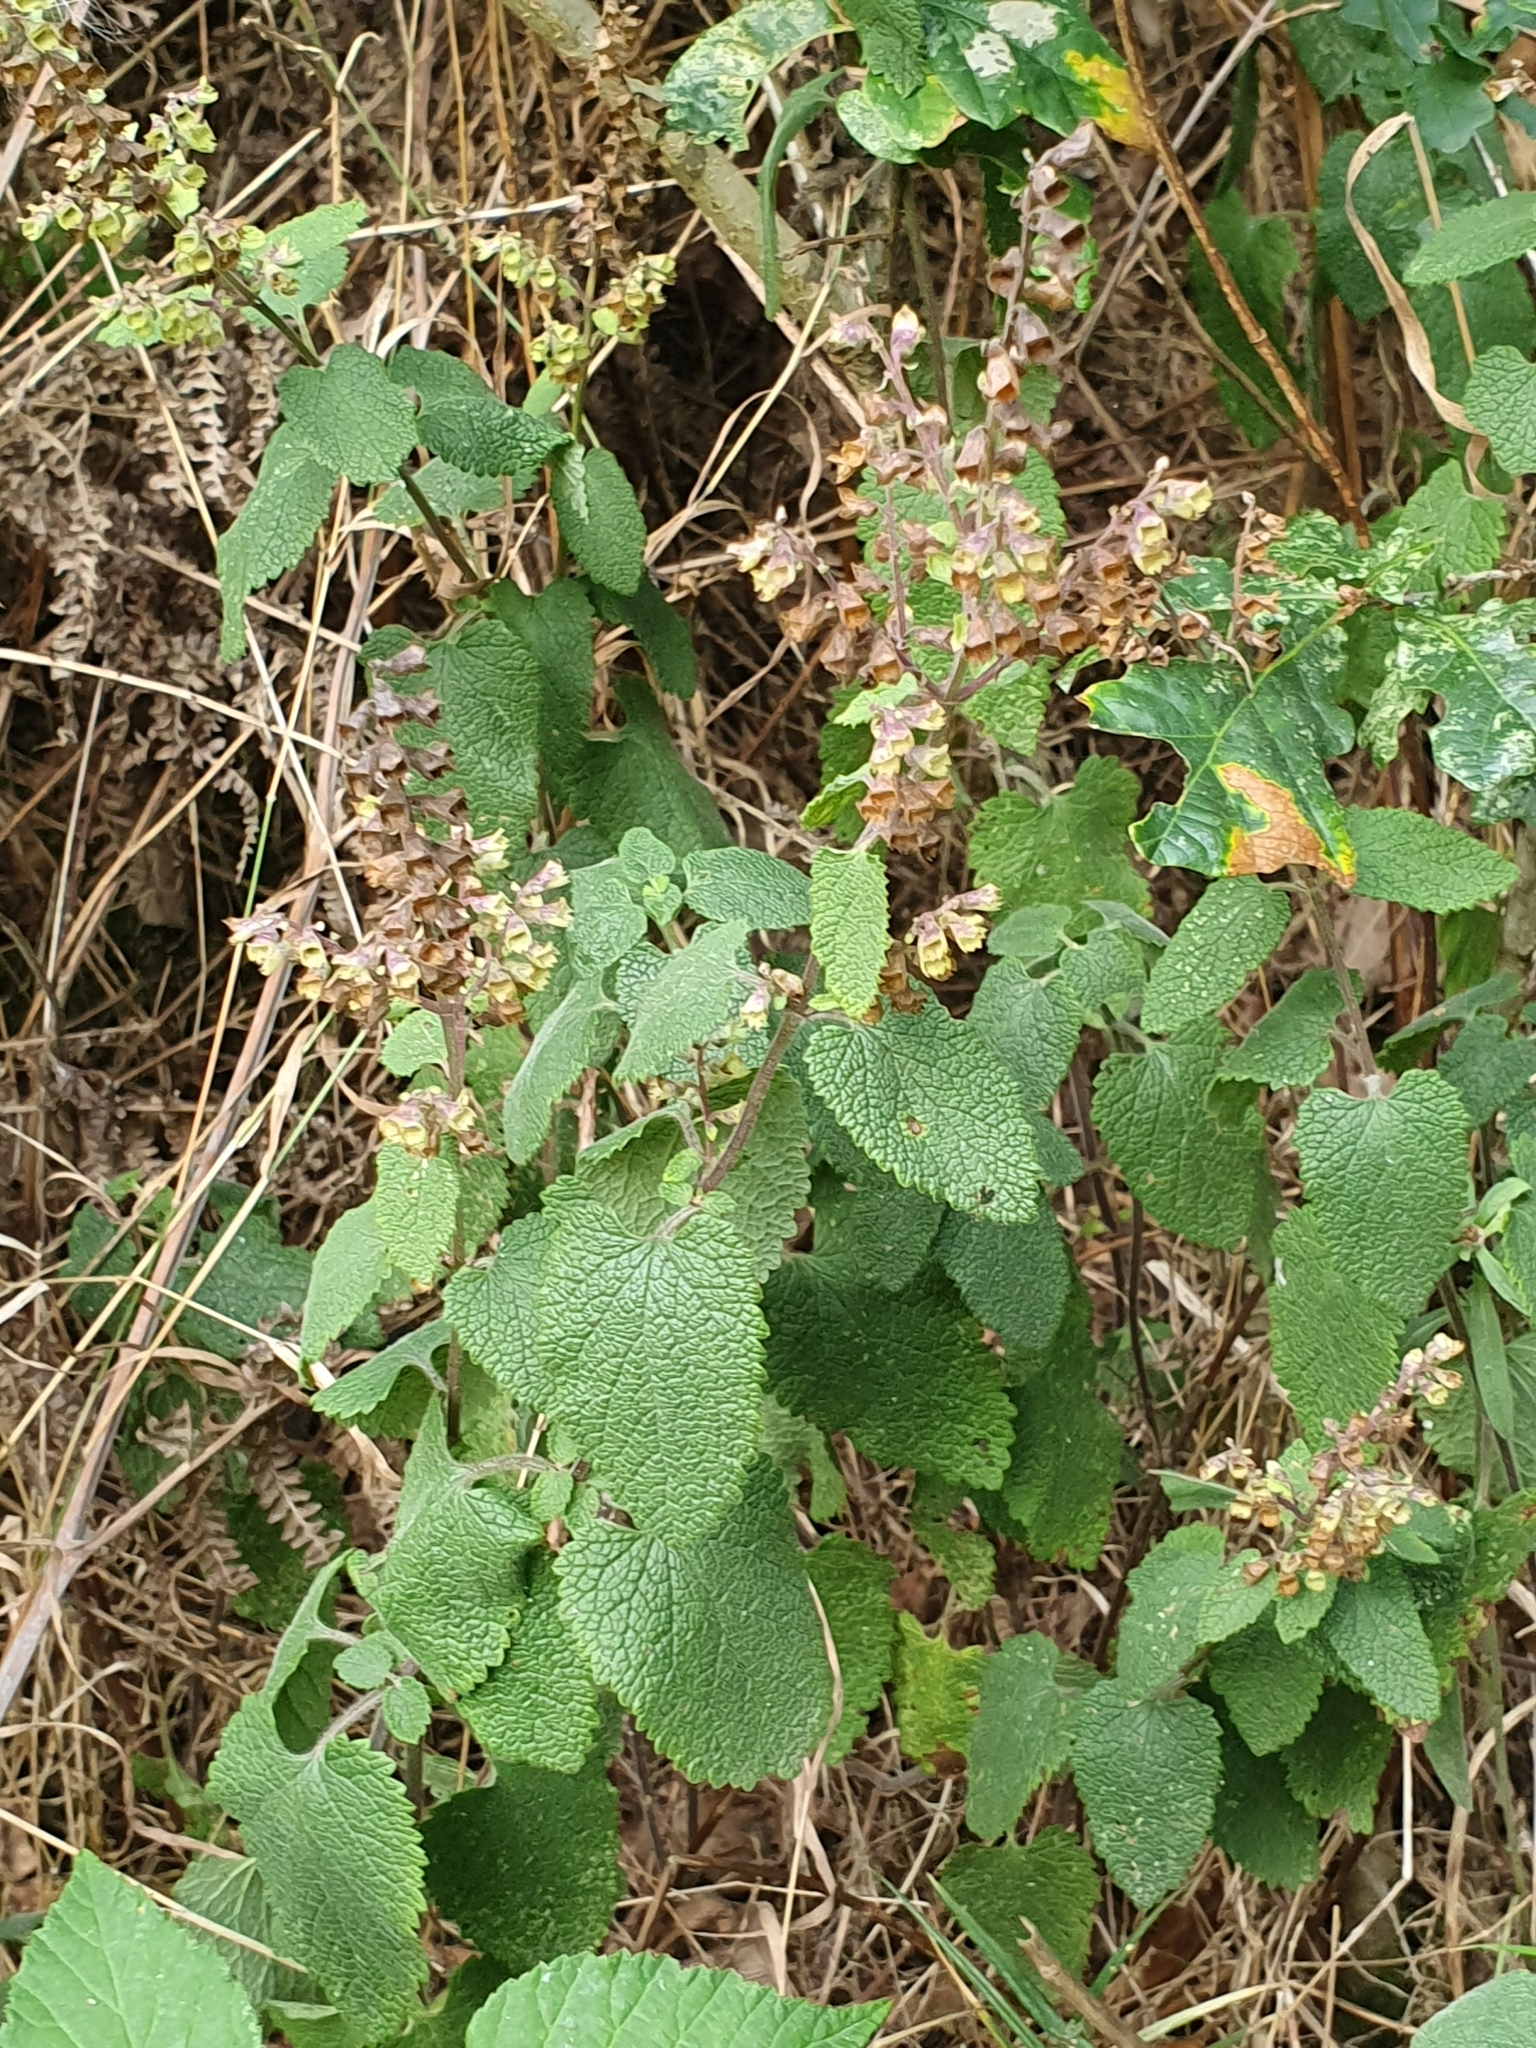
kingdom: Plantae
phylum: Tracheophyta
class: Magnoliopsida
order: Lamiales
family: Lamiaceae
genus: Teucrium
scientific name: Teucrium scorodonia
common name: Woodland germander
